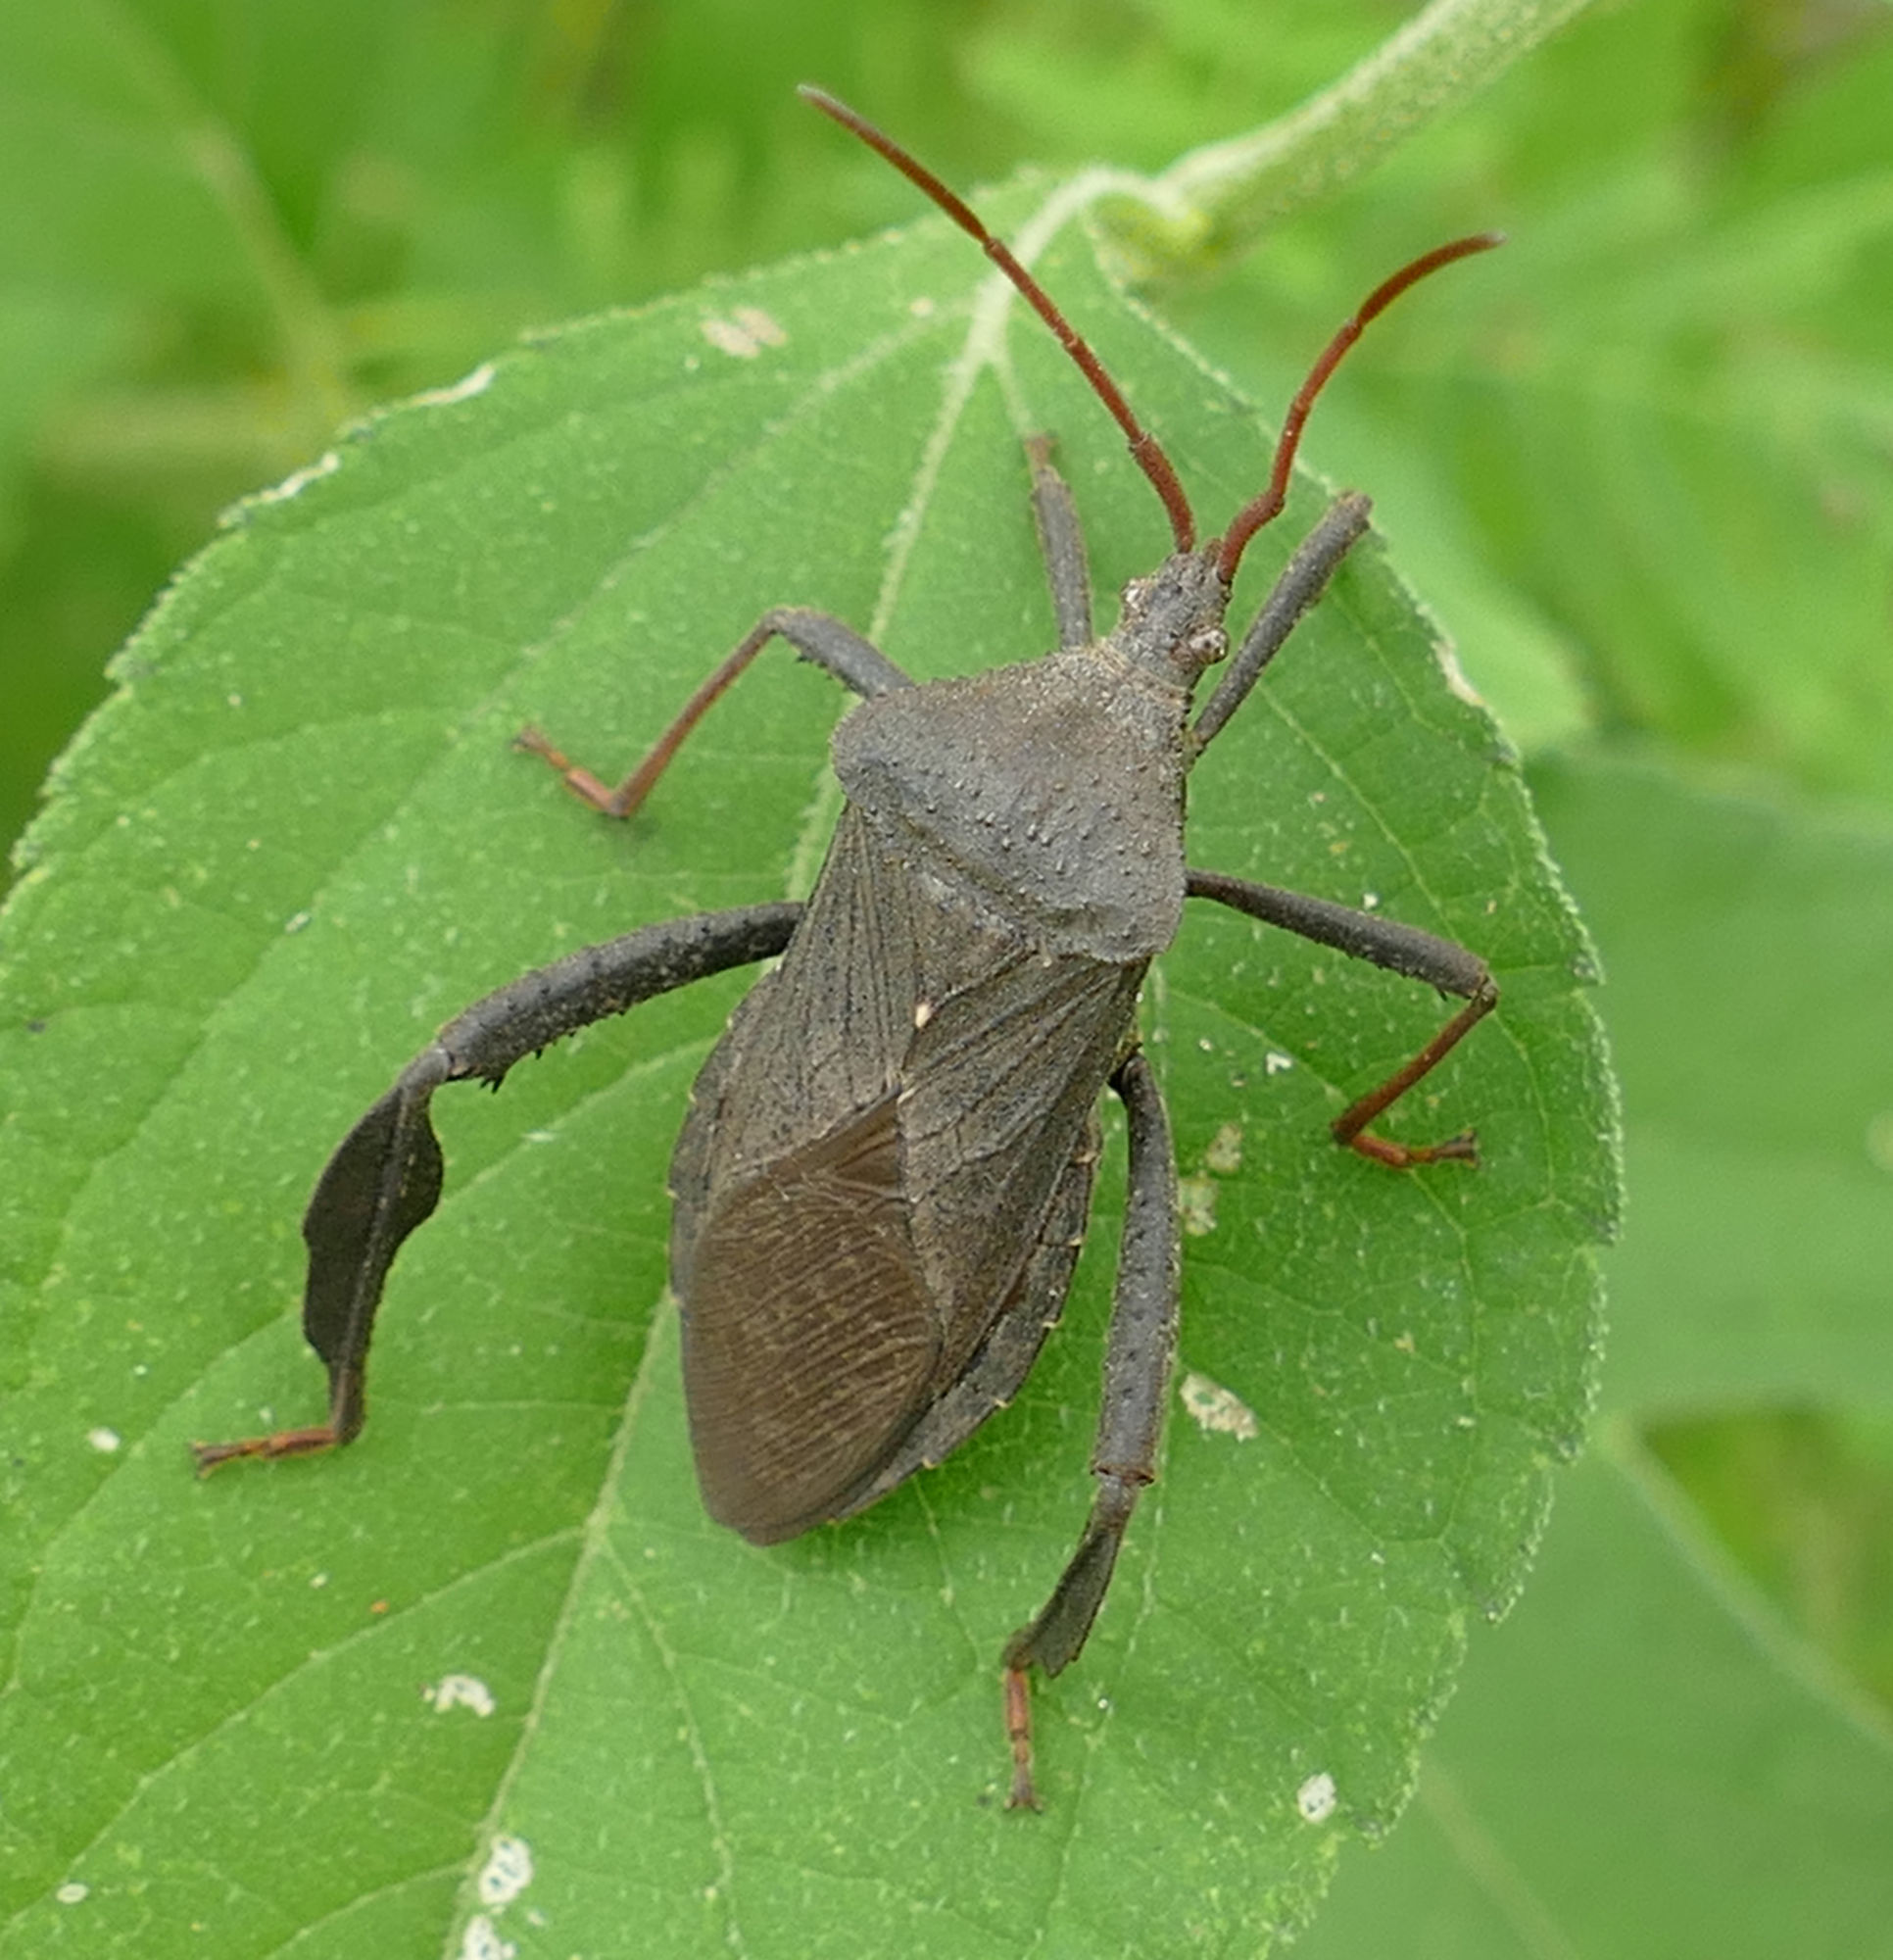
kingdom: Animalia
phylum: Arthropoda
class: Insecta
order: Hemiptera
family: Coreidae
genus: Acanthocephala
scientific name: Acanthocephala femorata
